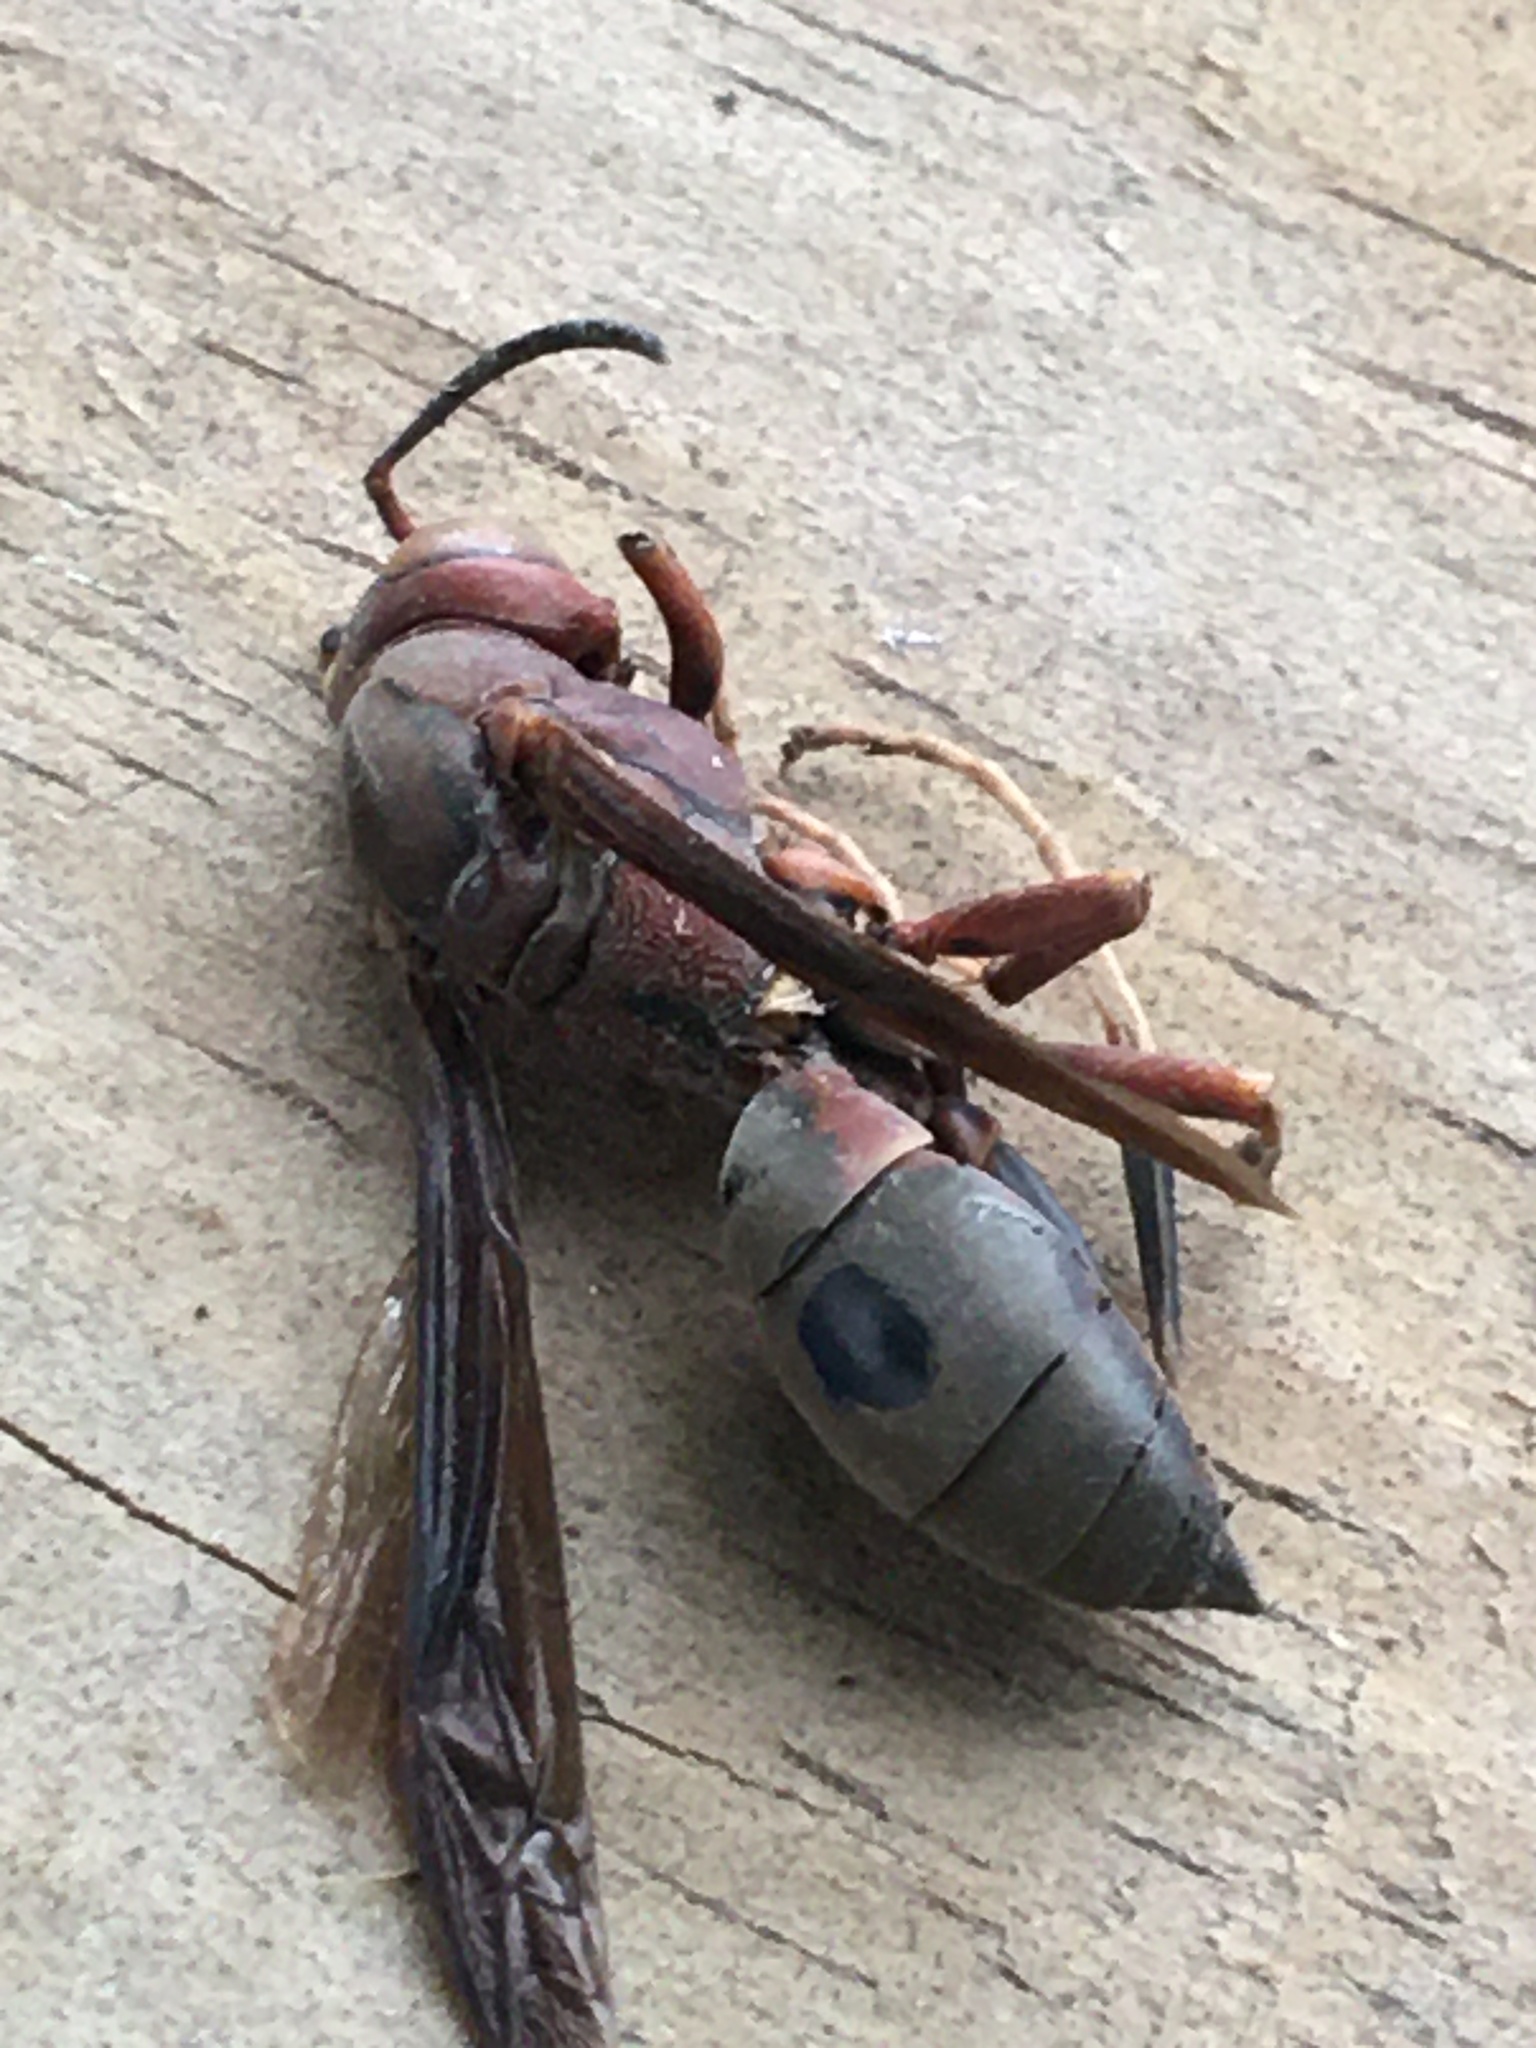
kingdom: Animalia
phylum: Arthropoda
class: Insecta
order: Hymenoptera
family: Eumenidae
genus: Polistes
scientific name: Polistes metricus
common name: Metric paper wasp
